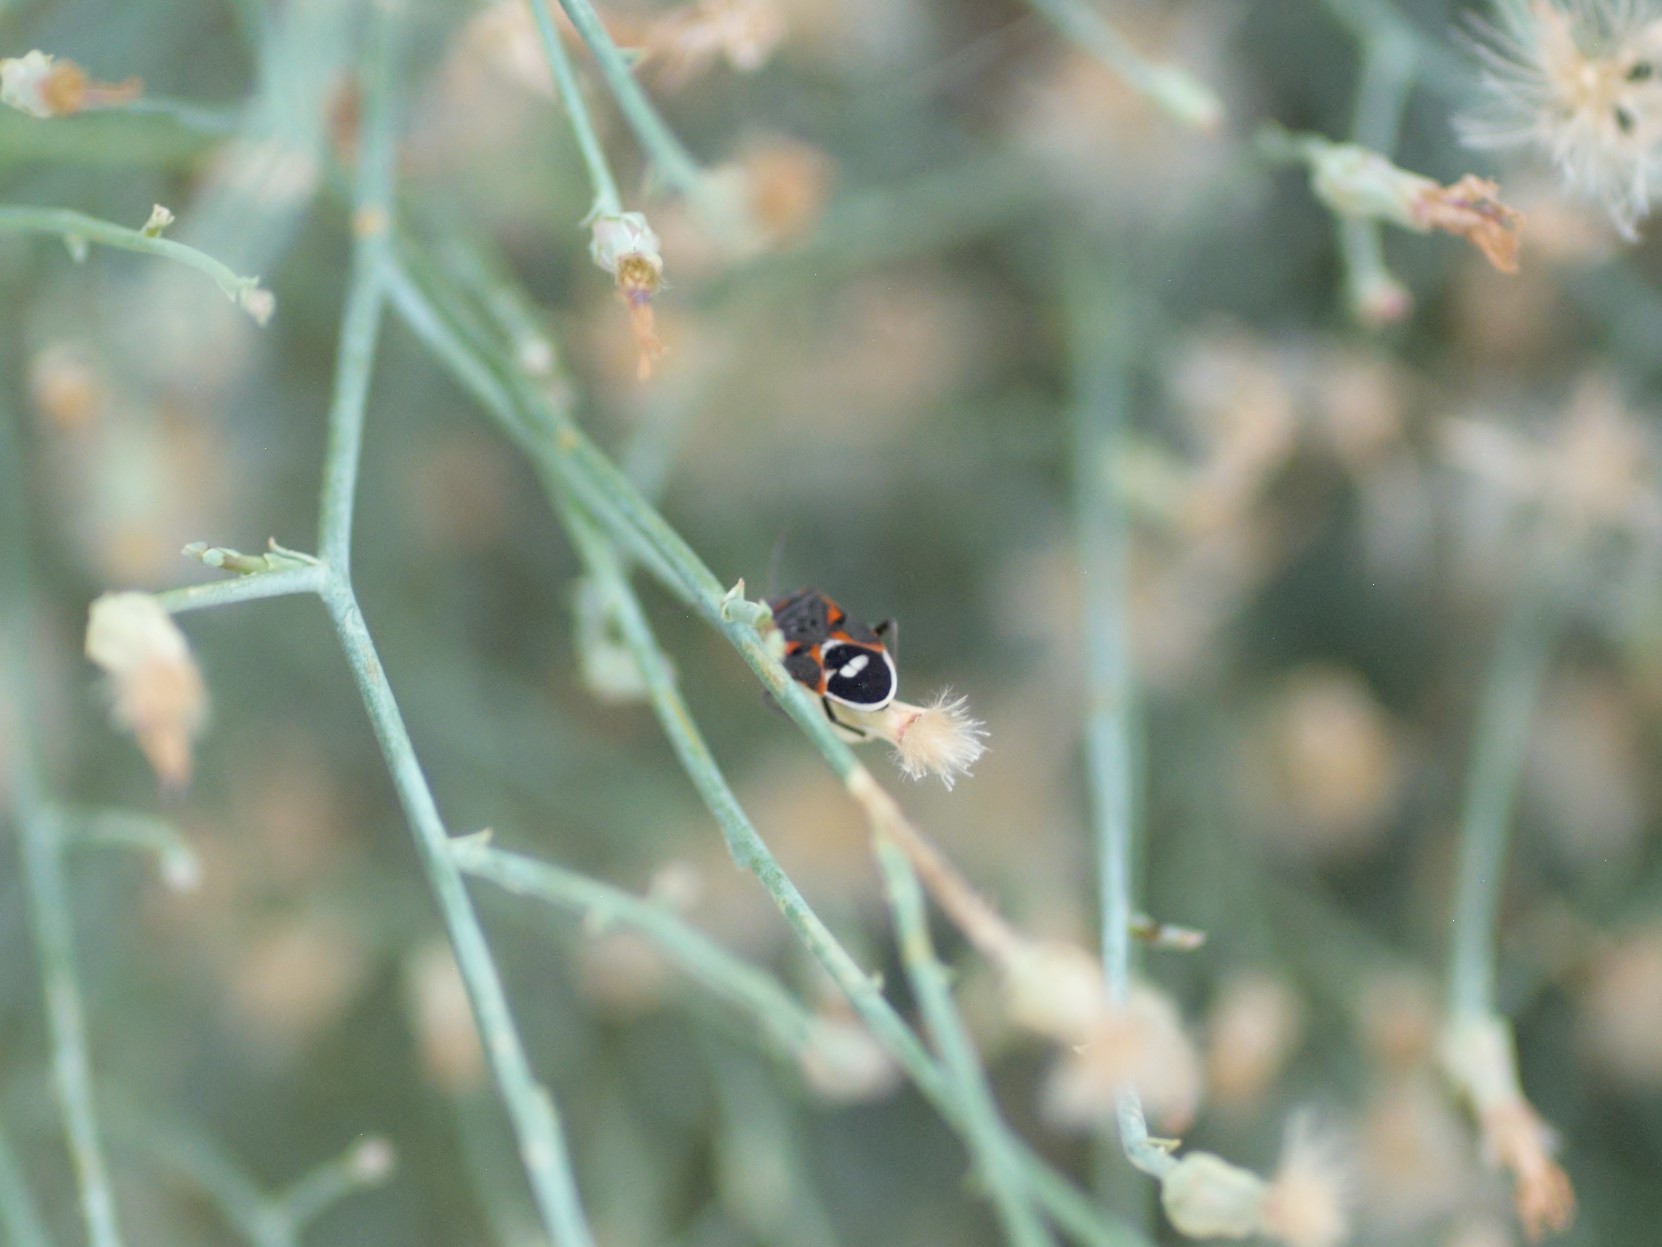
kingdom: Animalia
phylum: Arthropoda
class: Insecta
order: Hemiptera
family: Lygaeidae
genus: Lygaeus
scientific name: Lygaeus kalmii
